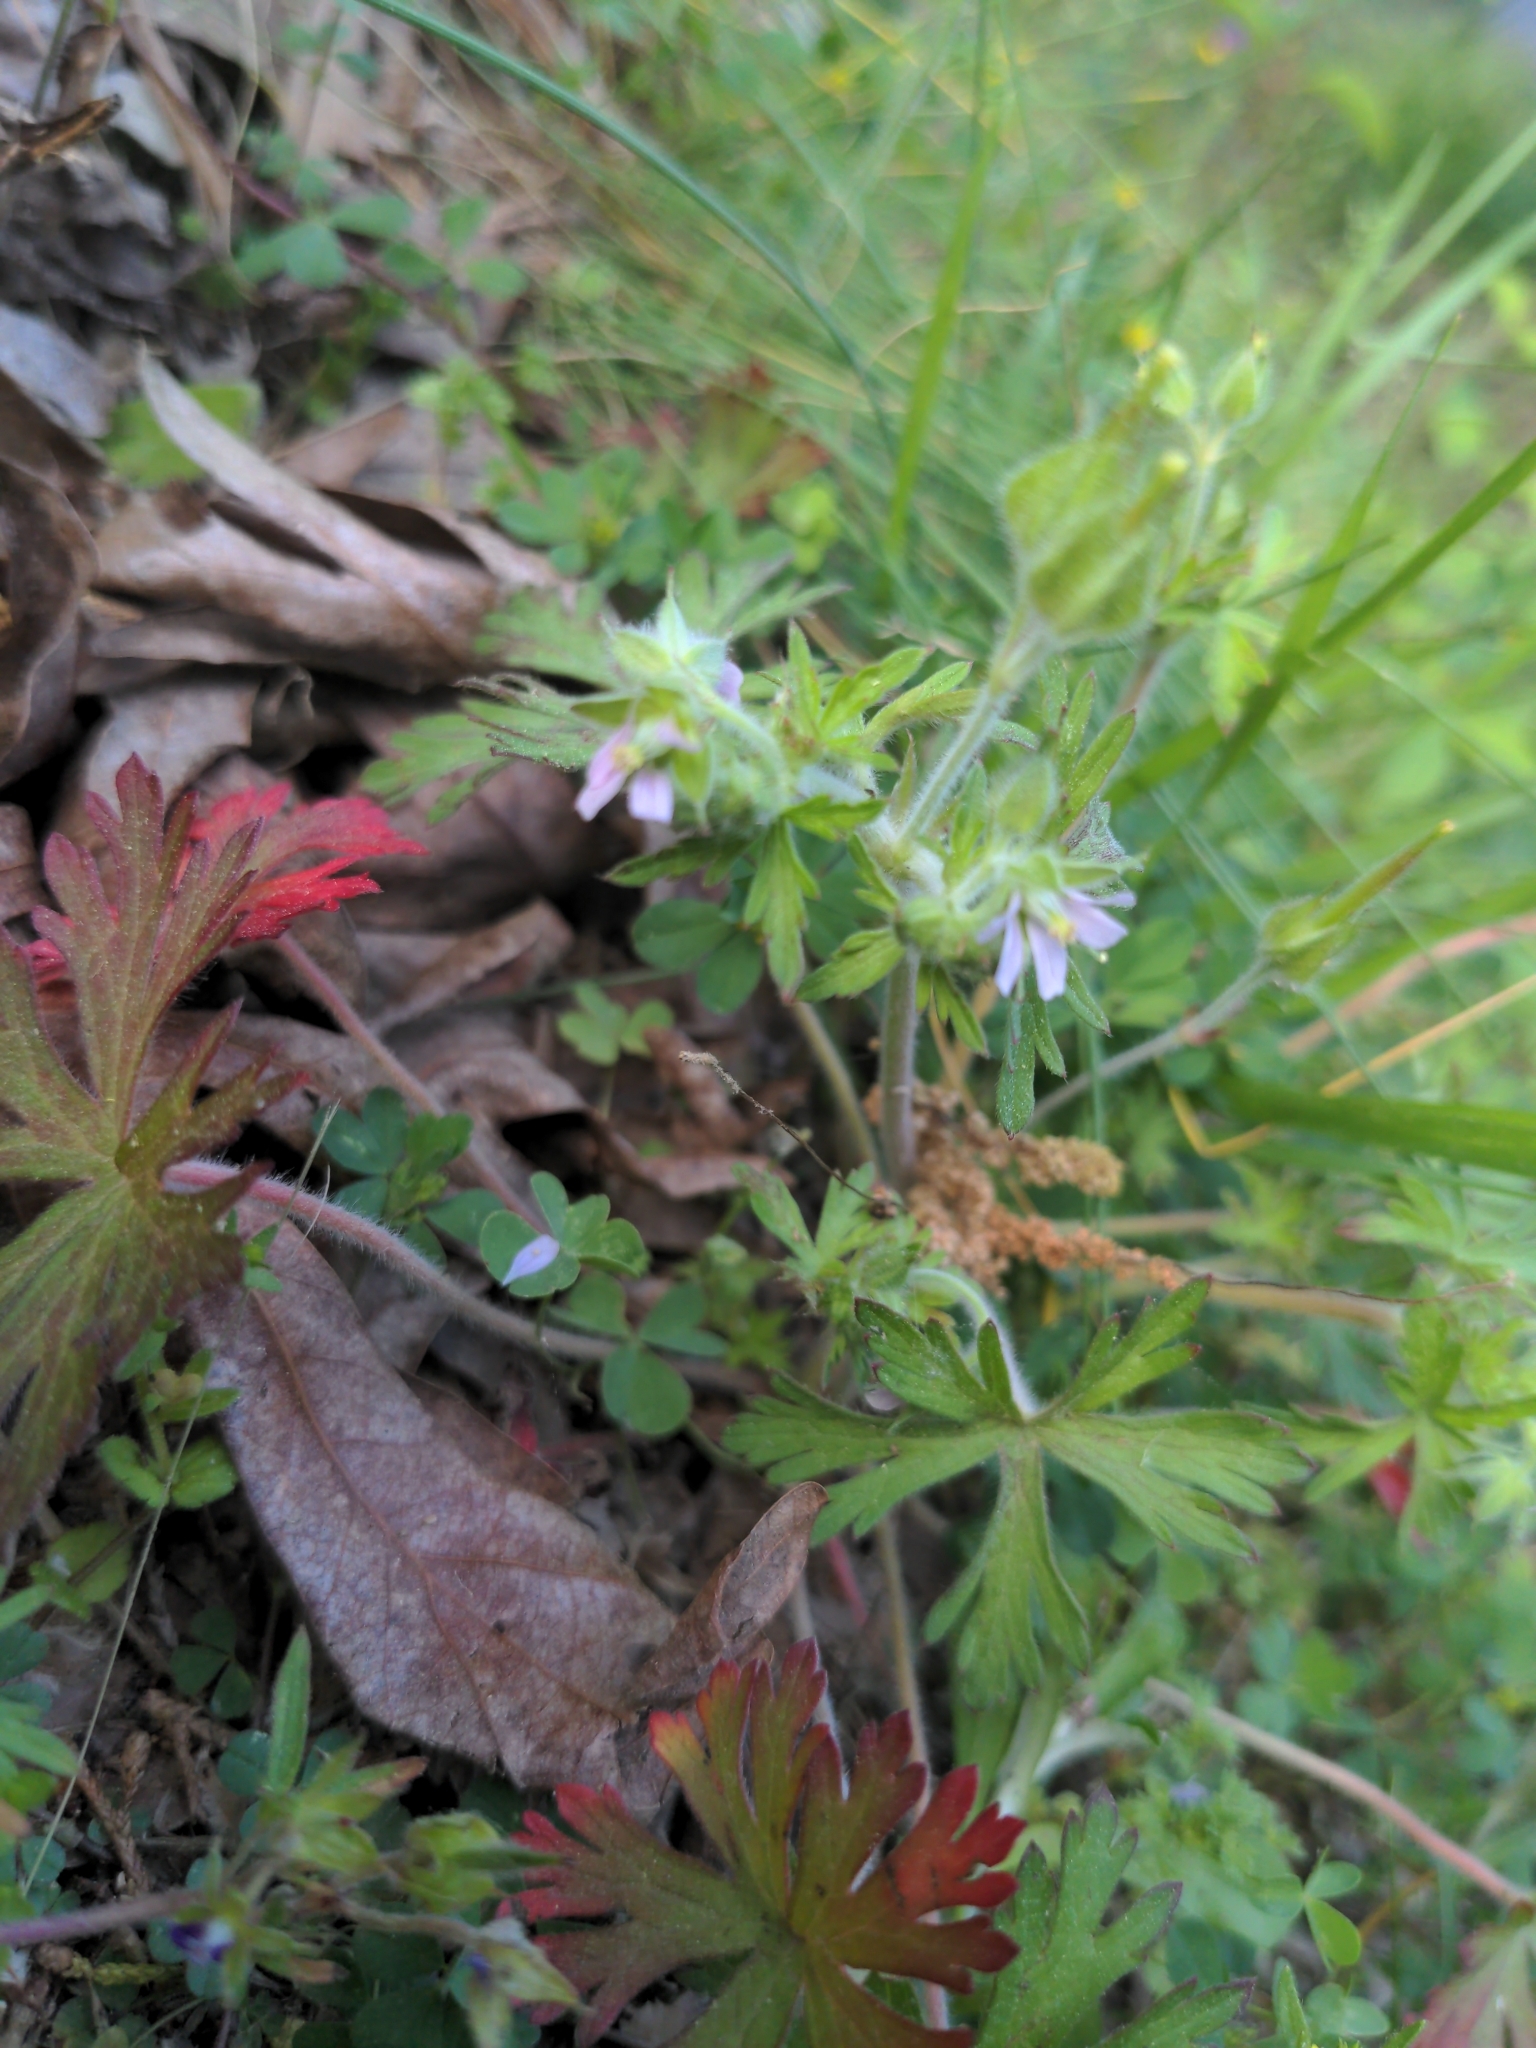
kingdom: Plantae
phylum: Tracheophyta
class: Magnoliopsida
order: Geraniales
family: Geraniaceae
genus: Geranium
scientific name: Geranium carolinianum
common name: Carolina crane's-bill
